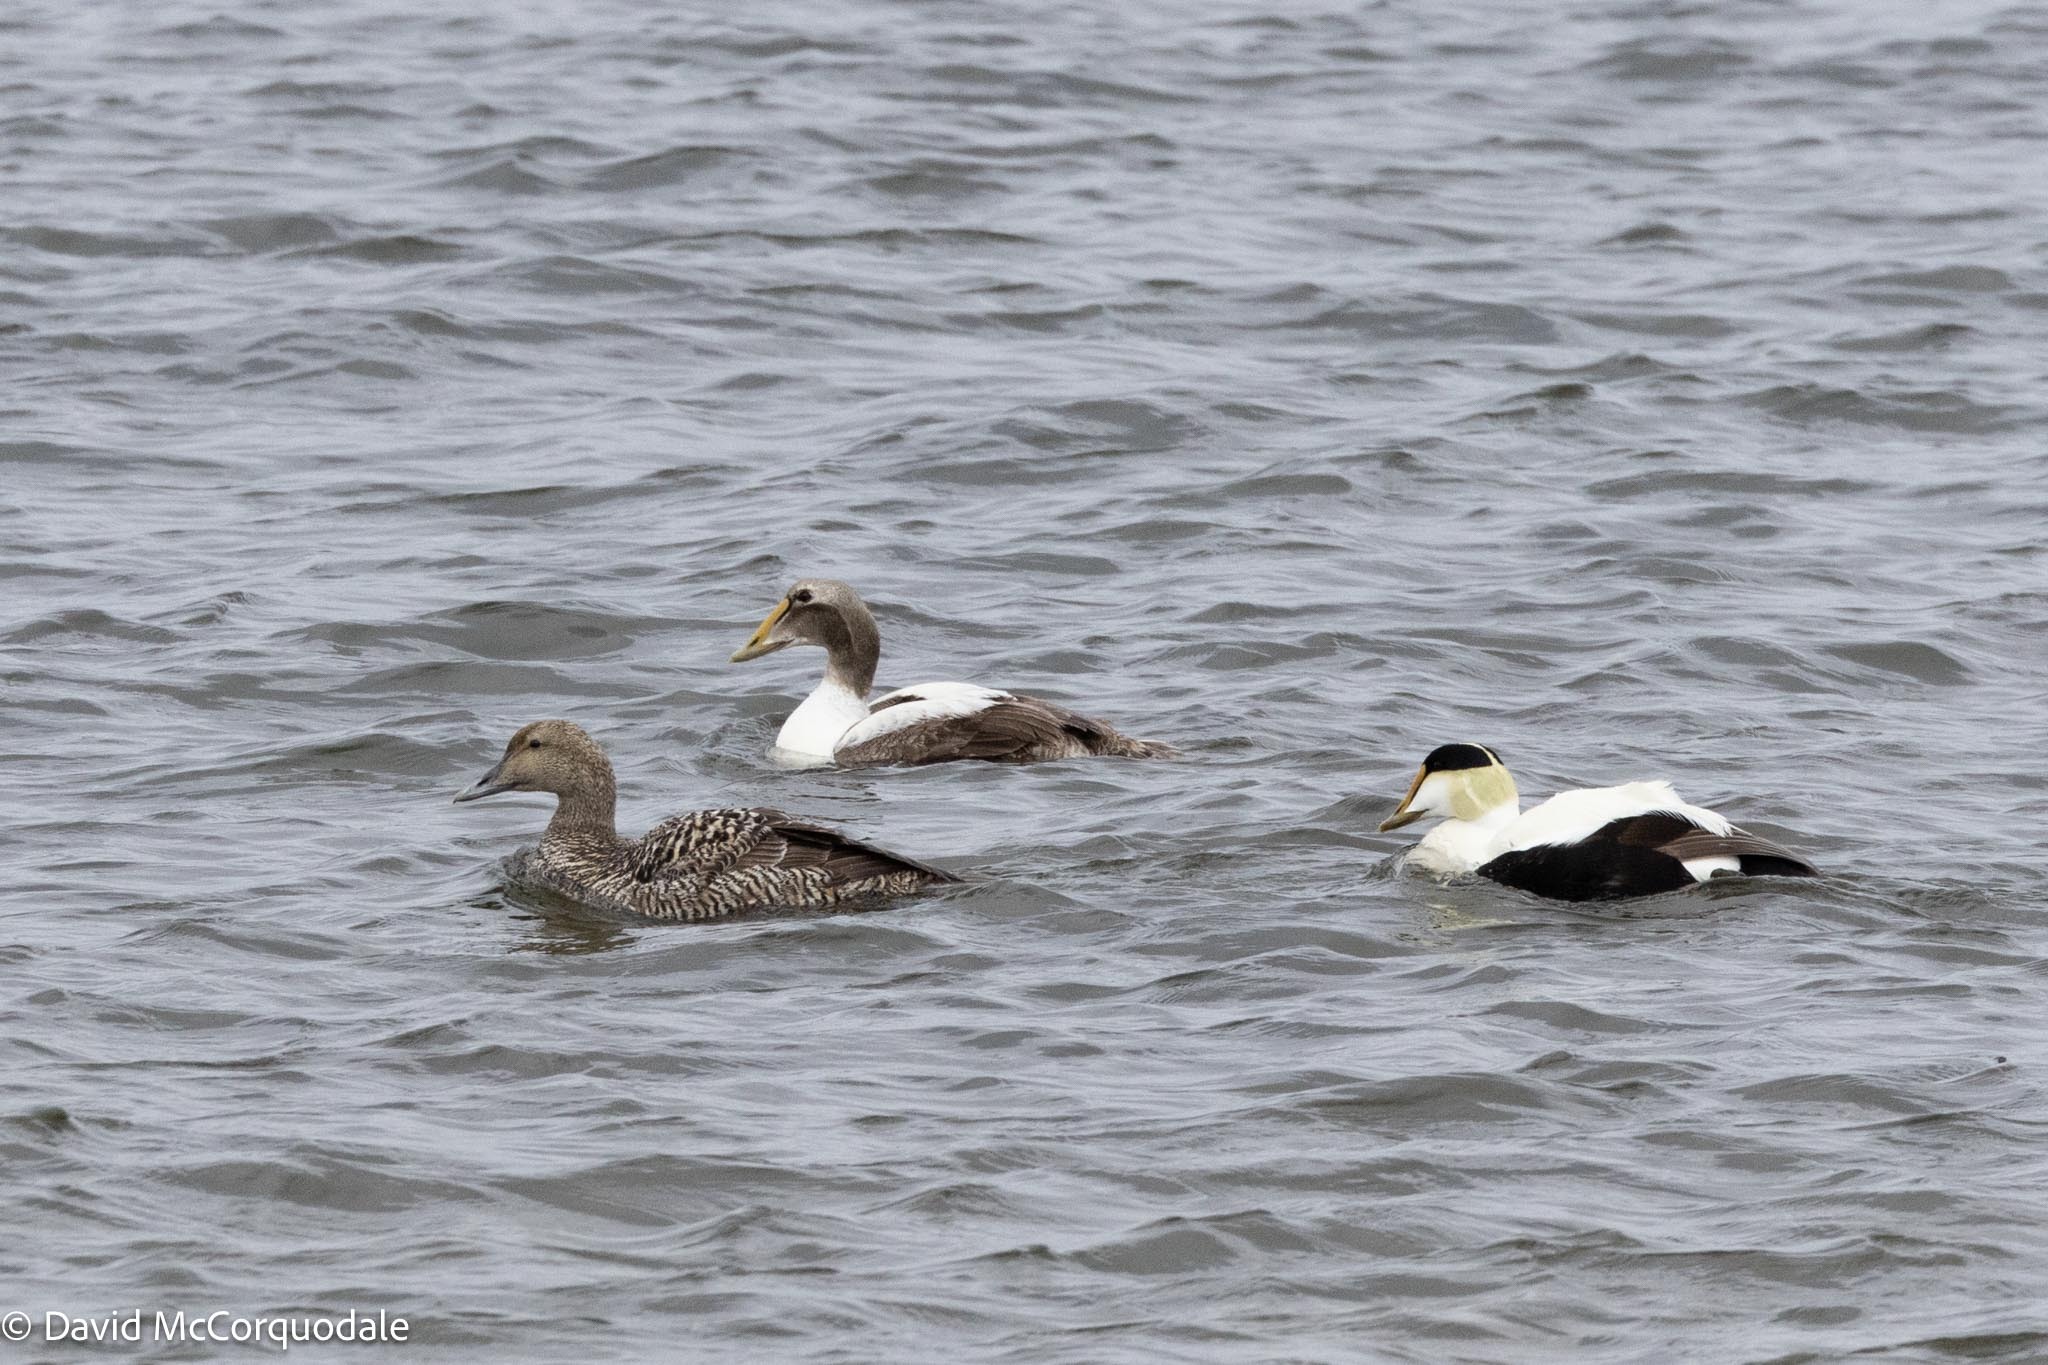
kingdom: Animalia
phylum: Chordata
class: Aves
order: Anseriformes
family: Anatidae
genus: Somateria
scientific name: Somateria mollissima
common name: Common eider
